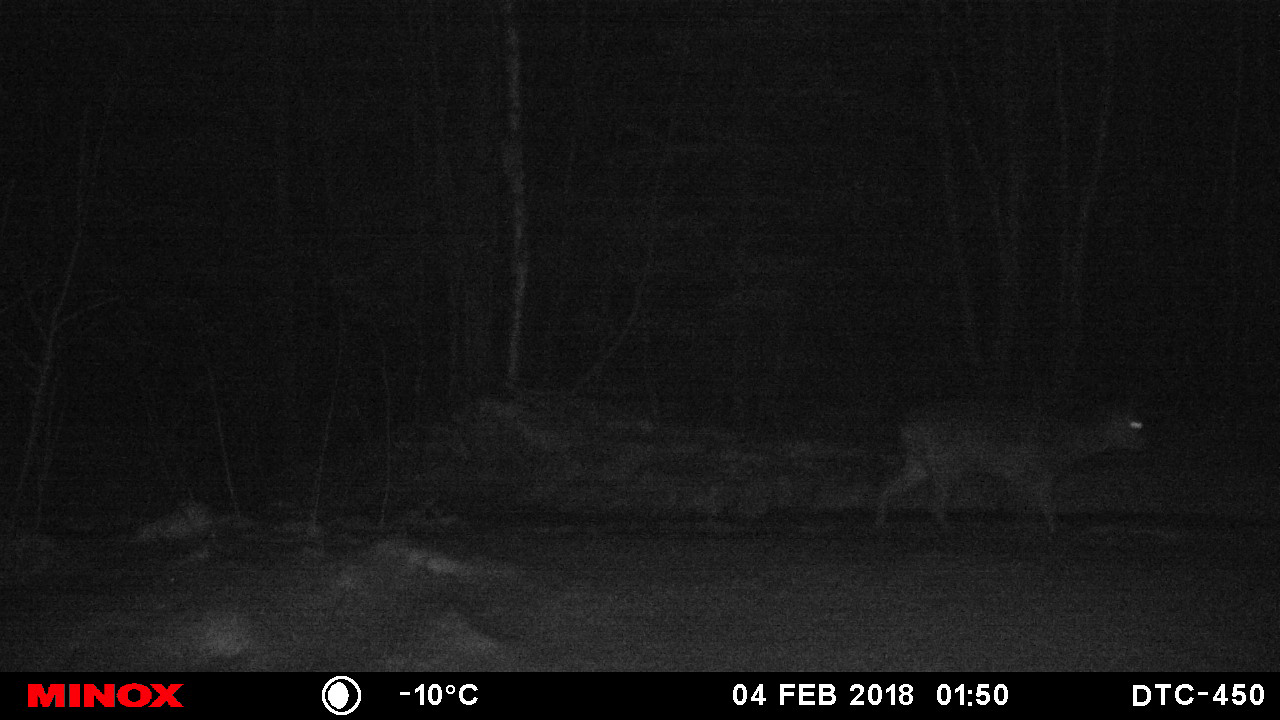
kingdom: Animalia
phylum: Chordata
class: Mammalia
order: Artiodactyla
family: Cervidae
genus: Capreolus
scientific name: Capreolus capreolus
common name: Western roe deer
